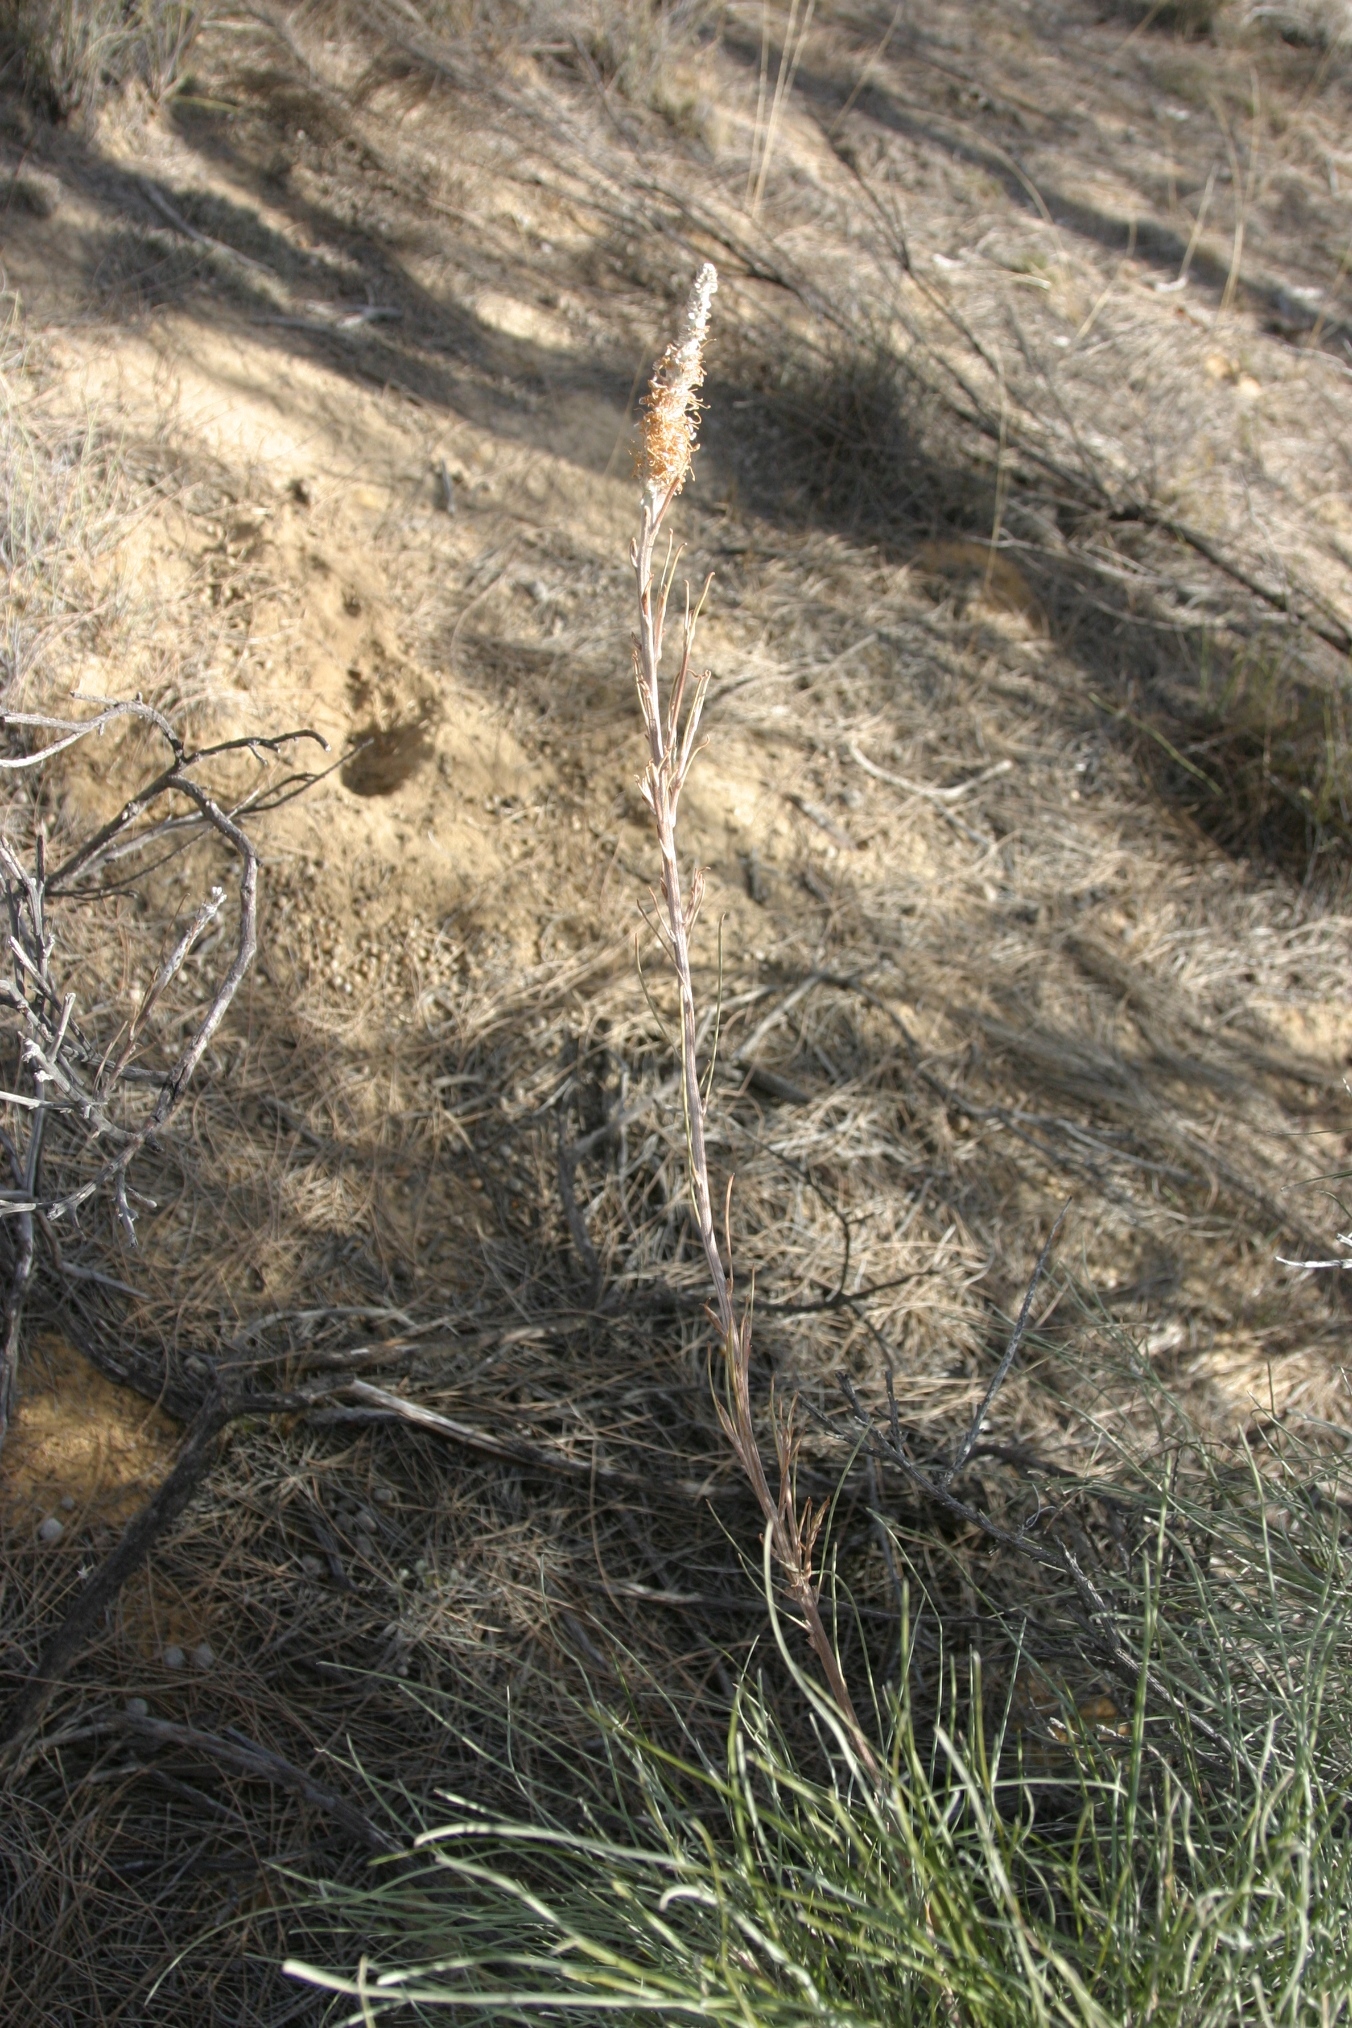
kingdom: Plantae
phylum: Tracheophyta
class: Magnoliopsida
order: Proteales
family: Proteaceae
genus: Grevillea
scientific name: Grevillea eriostachya
